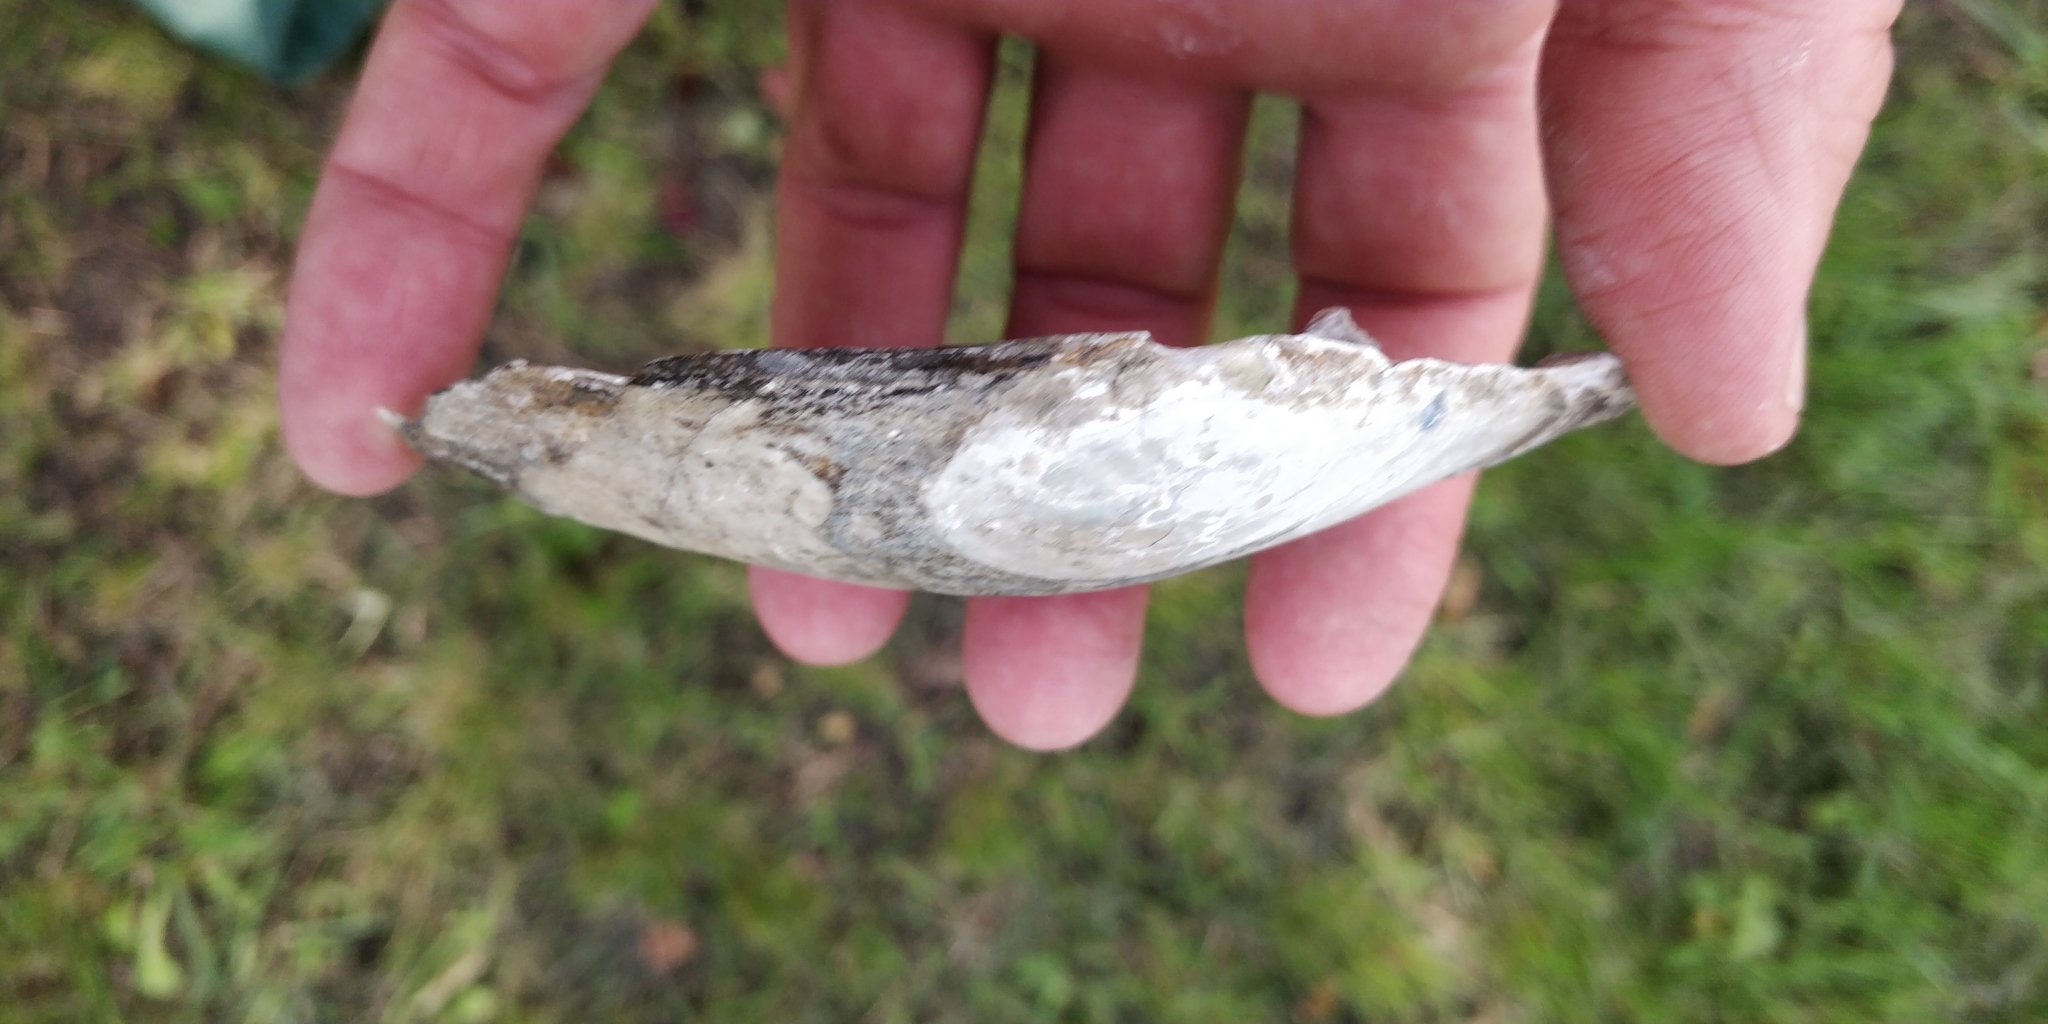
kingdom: Animalia
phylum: Mollusca
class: Bivalvia
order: Unionida
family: Unionidae
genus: Lasmigona
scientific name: Lasmigona complanata
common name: White heelsplitter
